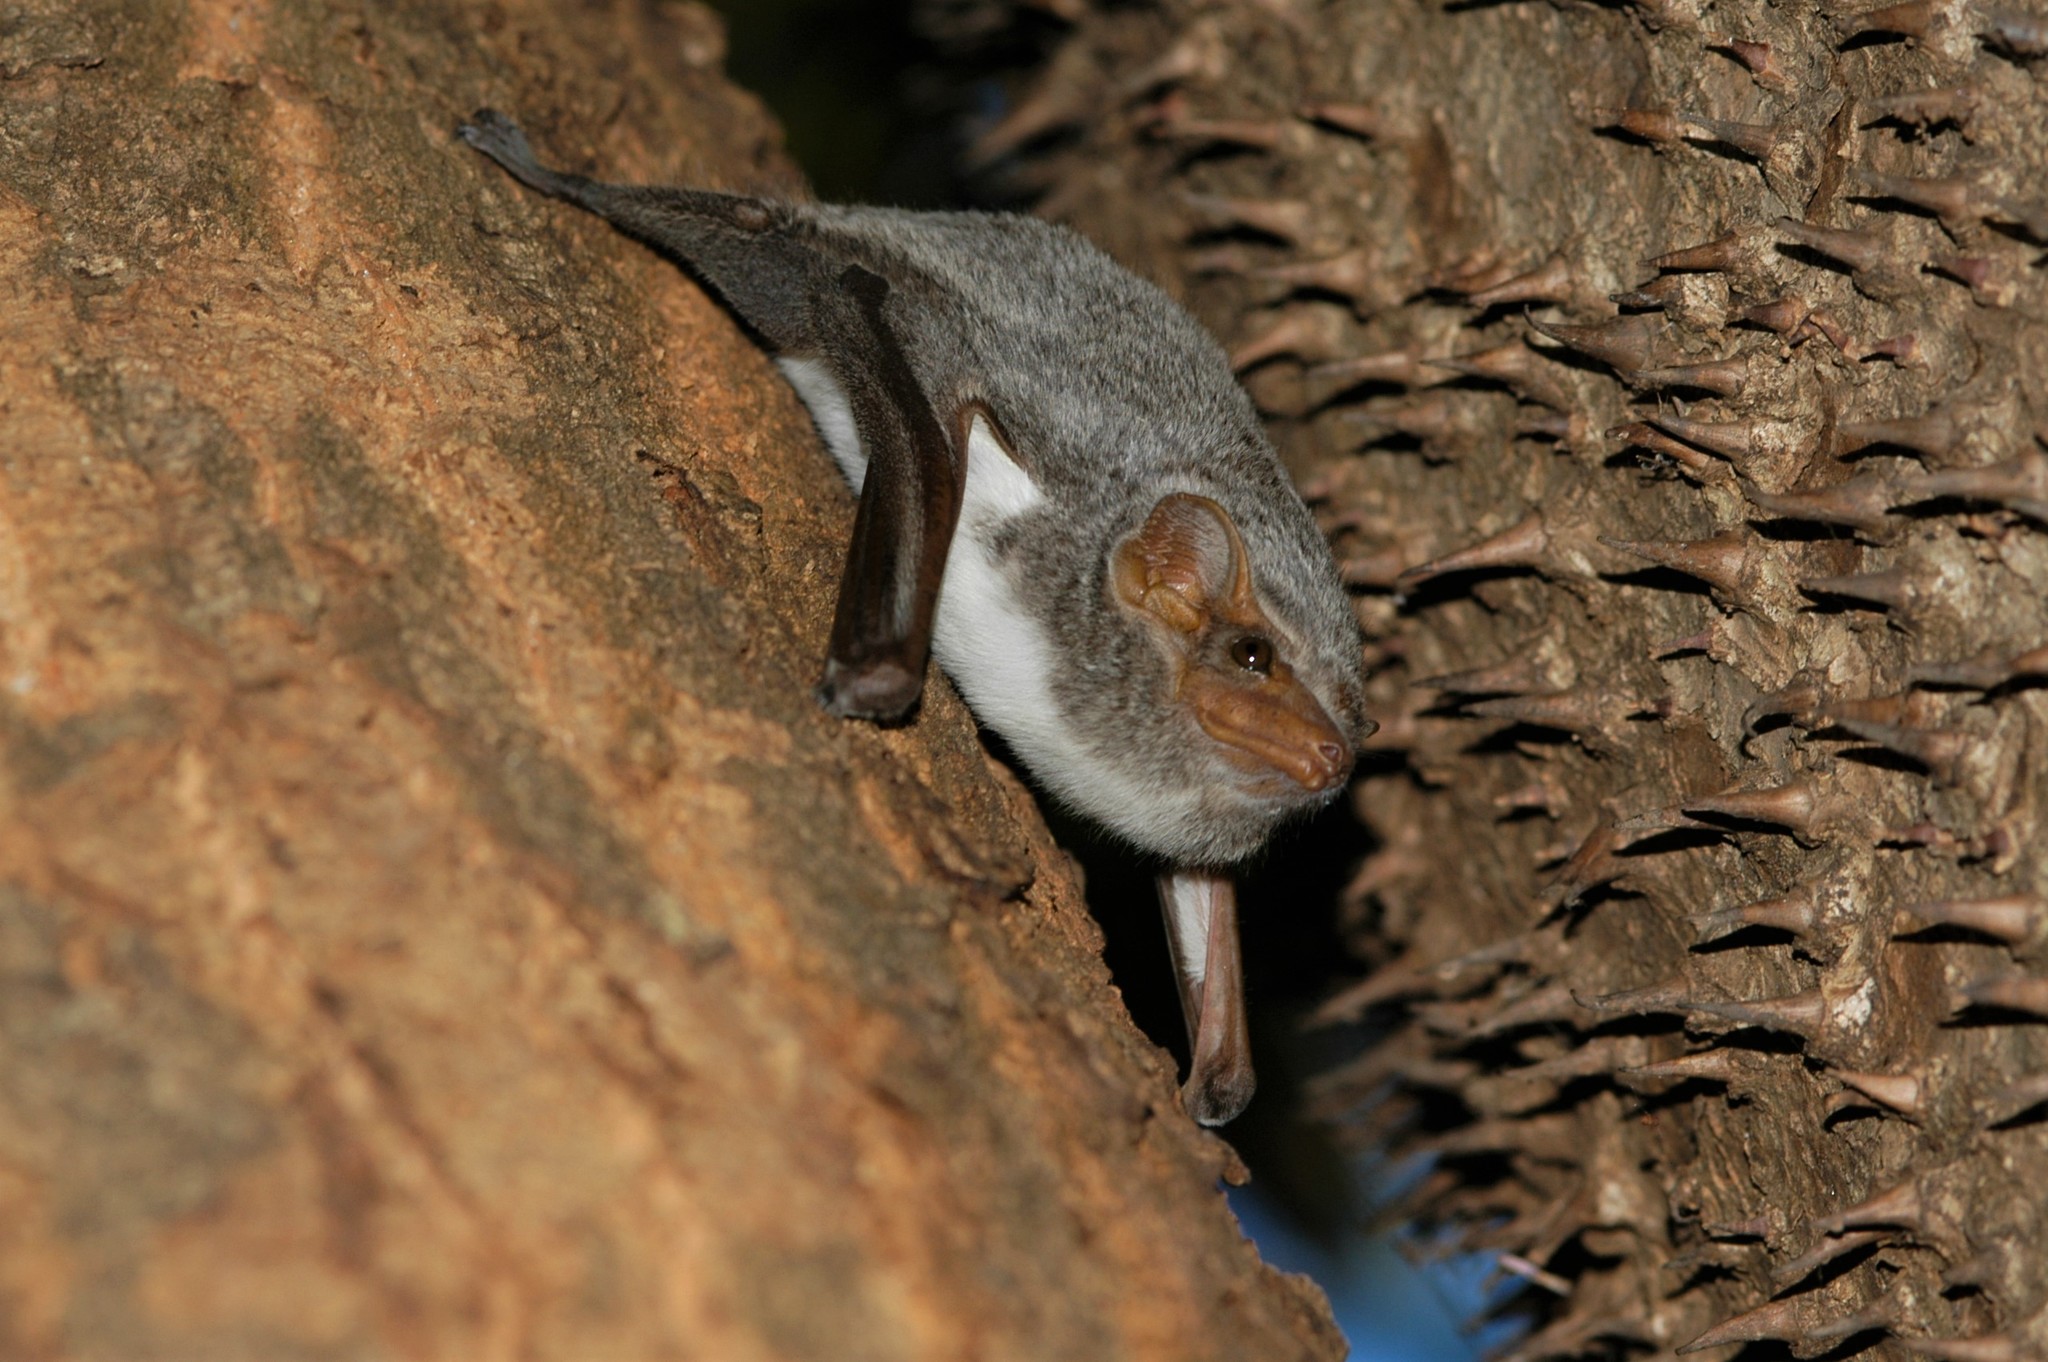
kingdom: Animalia
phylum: Chordata
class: Mammalia
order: Chiroptera
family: Emballonuridae
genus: Taphozous
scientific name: Taphozous mauritianus
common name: Mauritian tomb bat
